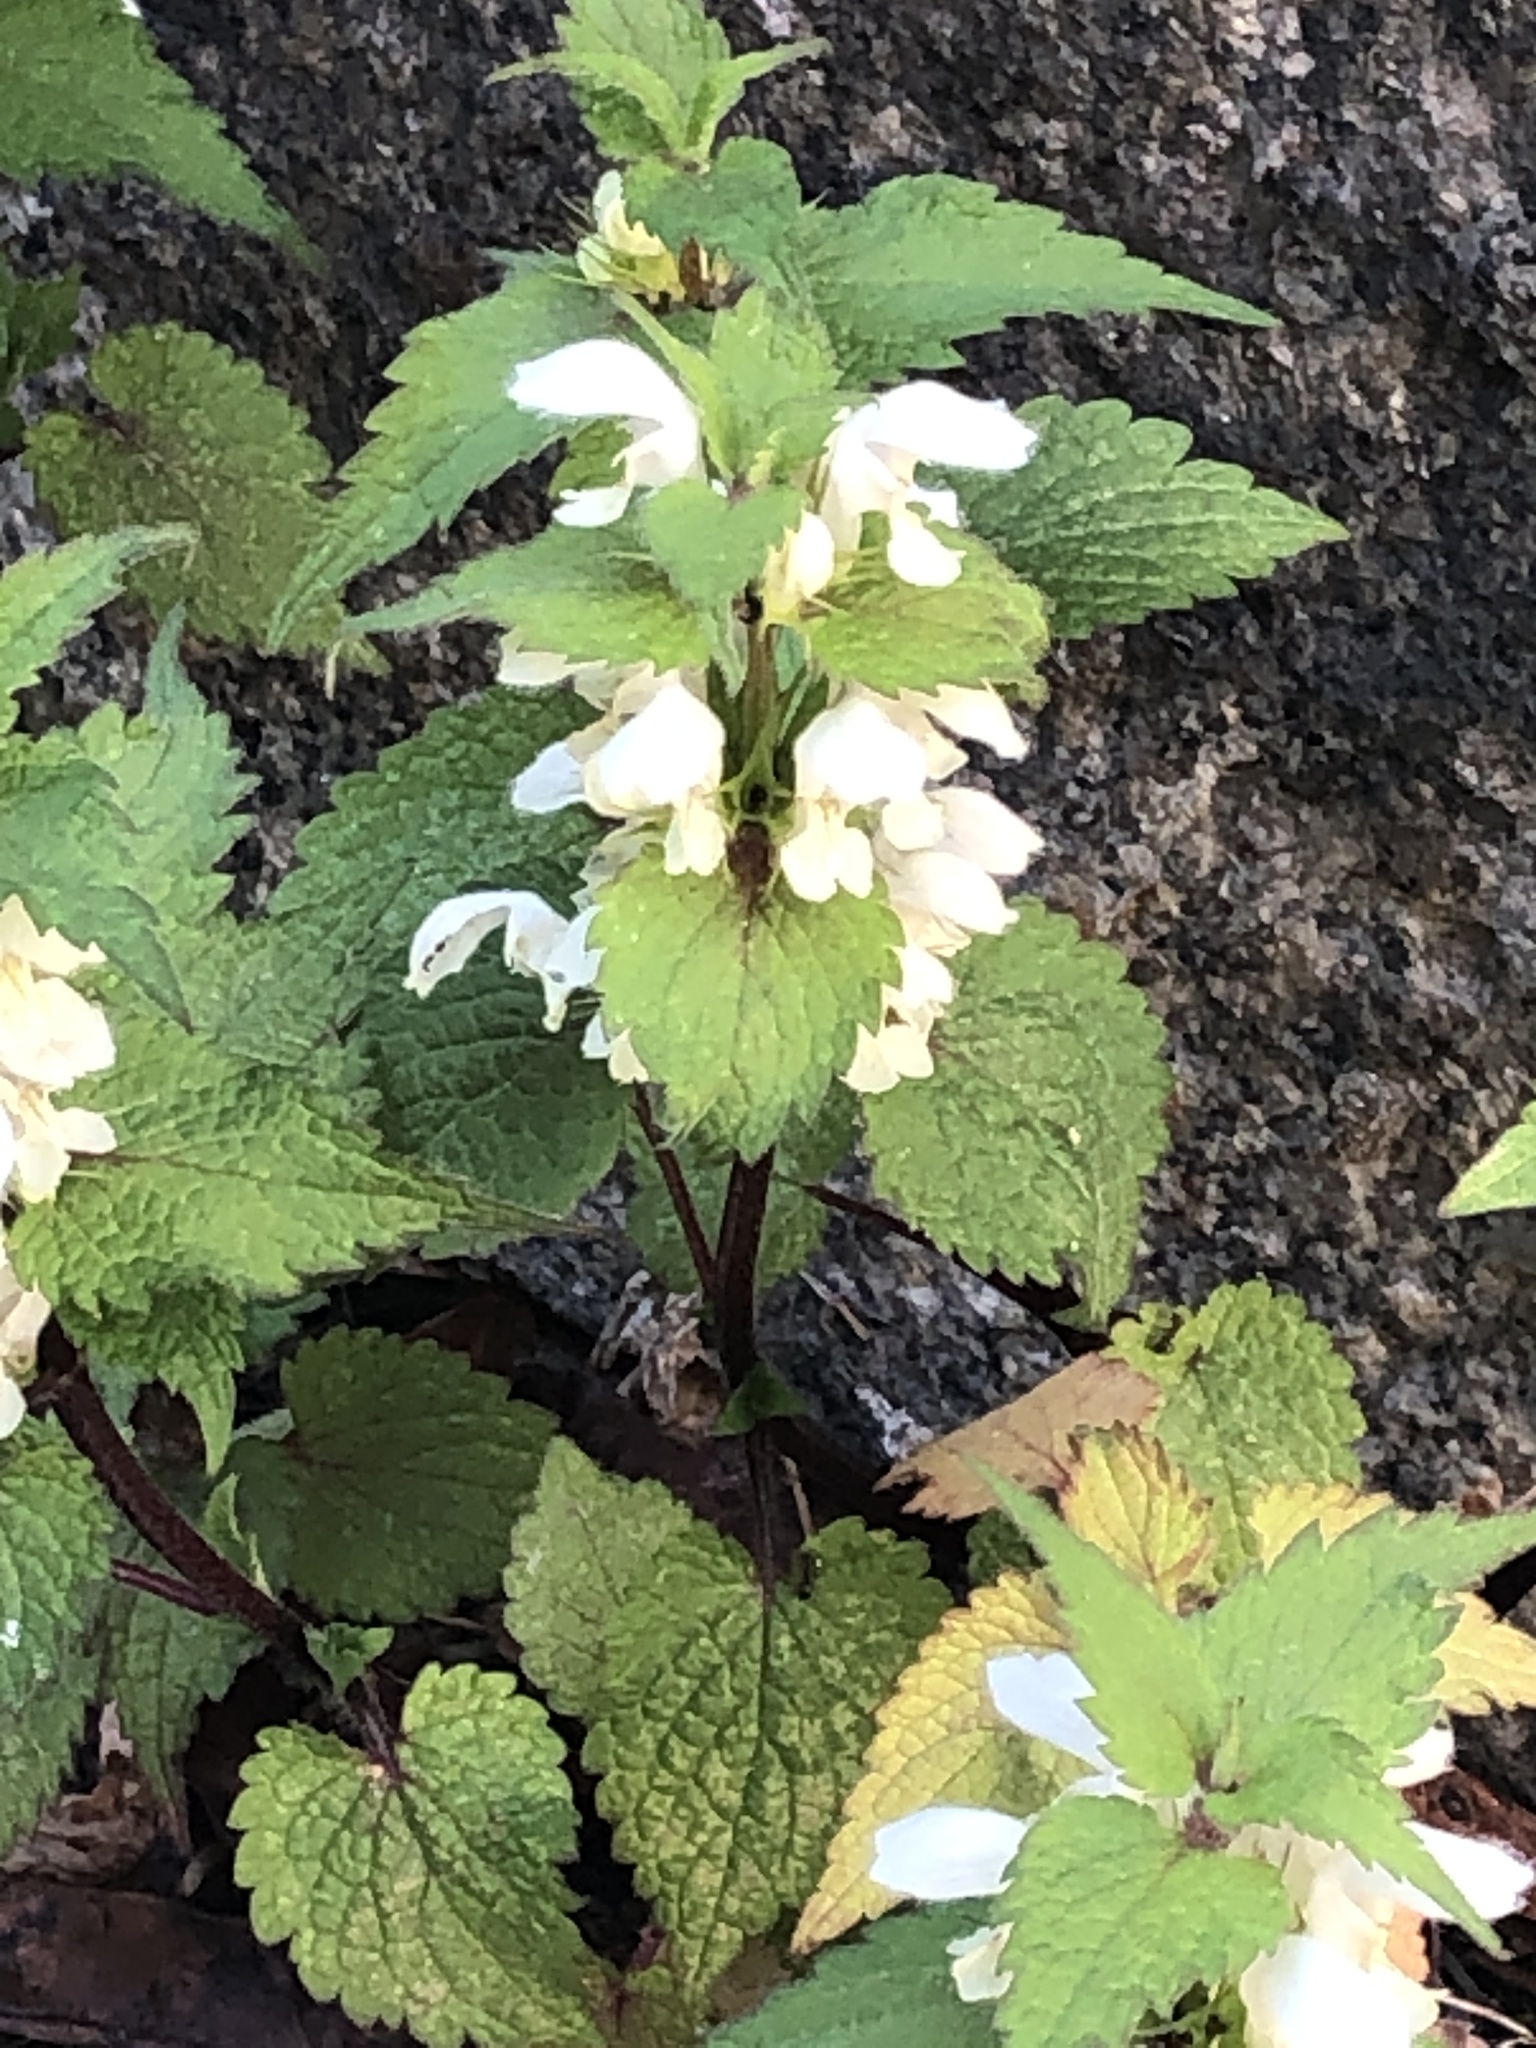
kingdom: Plantae
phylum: Tracheophyta
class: Magnoliopsida
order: Lamiales
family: Lamiaceae
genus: Lamium
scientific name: Lamium album
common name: White dead-nettle
